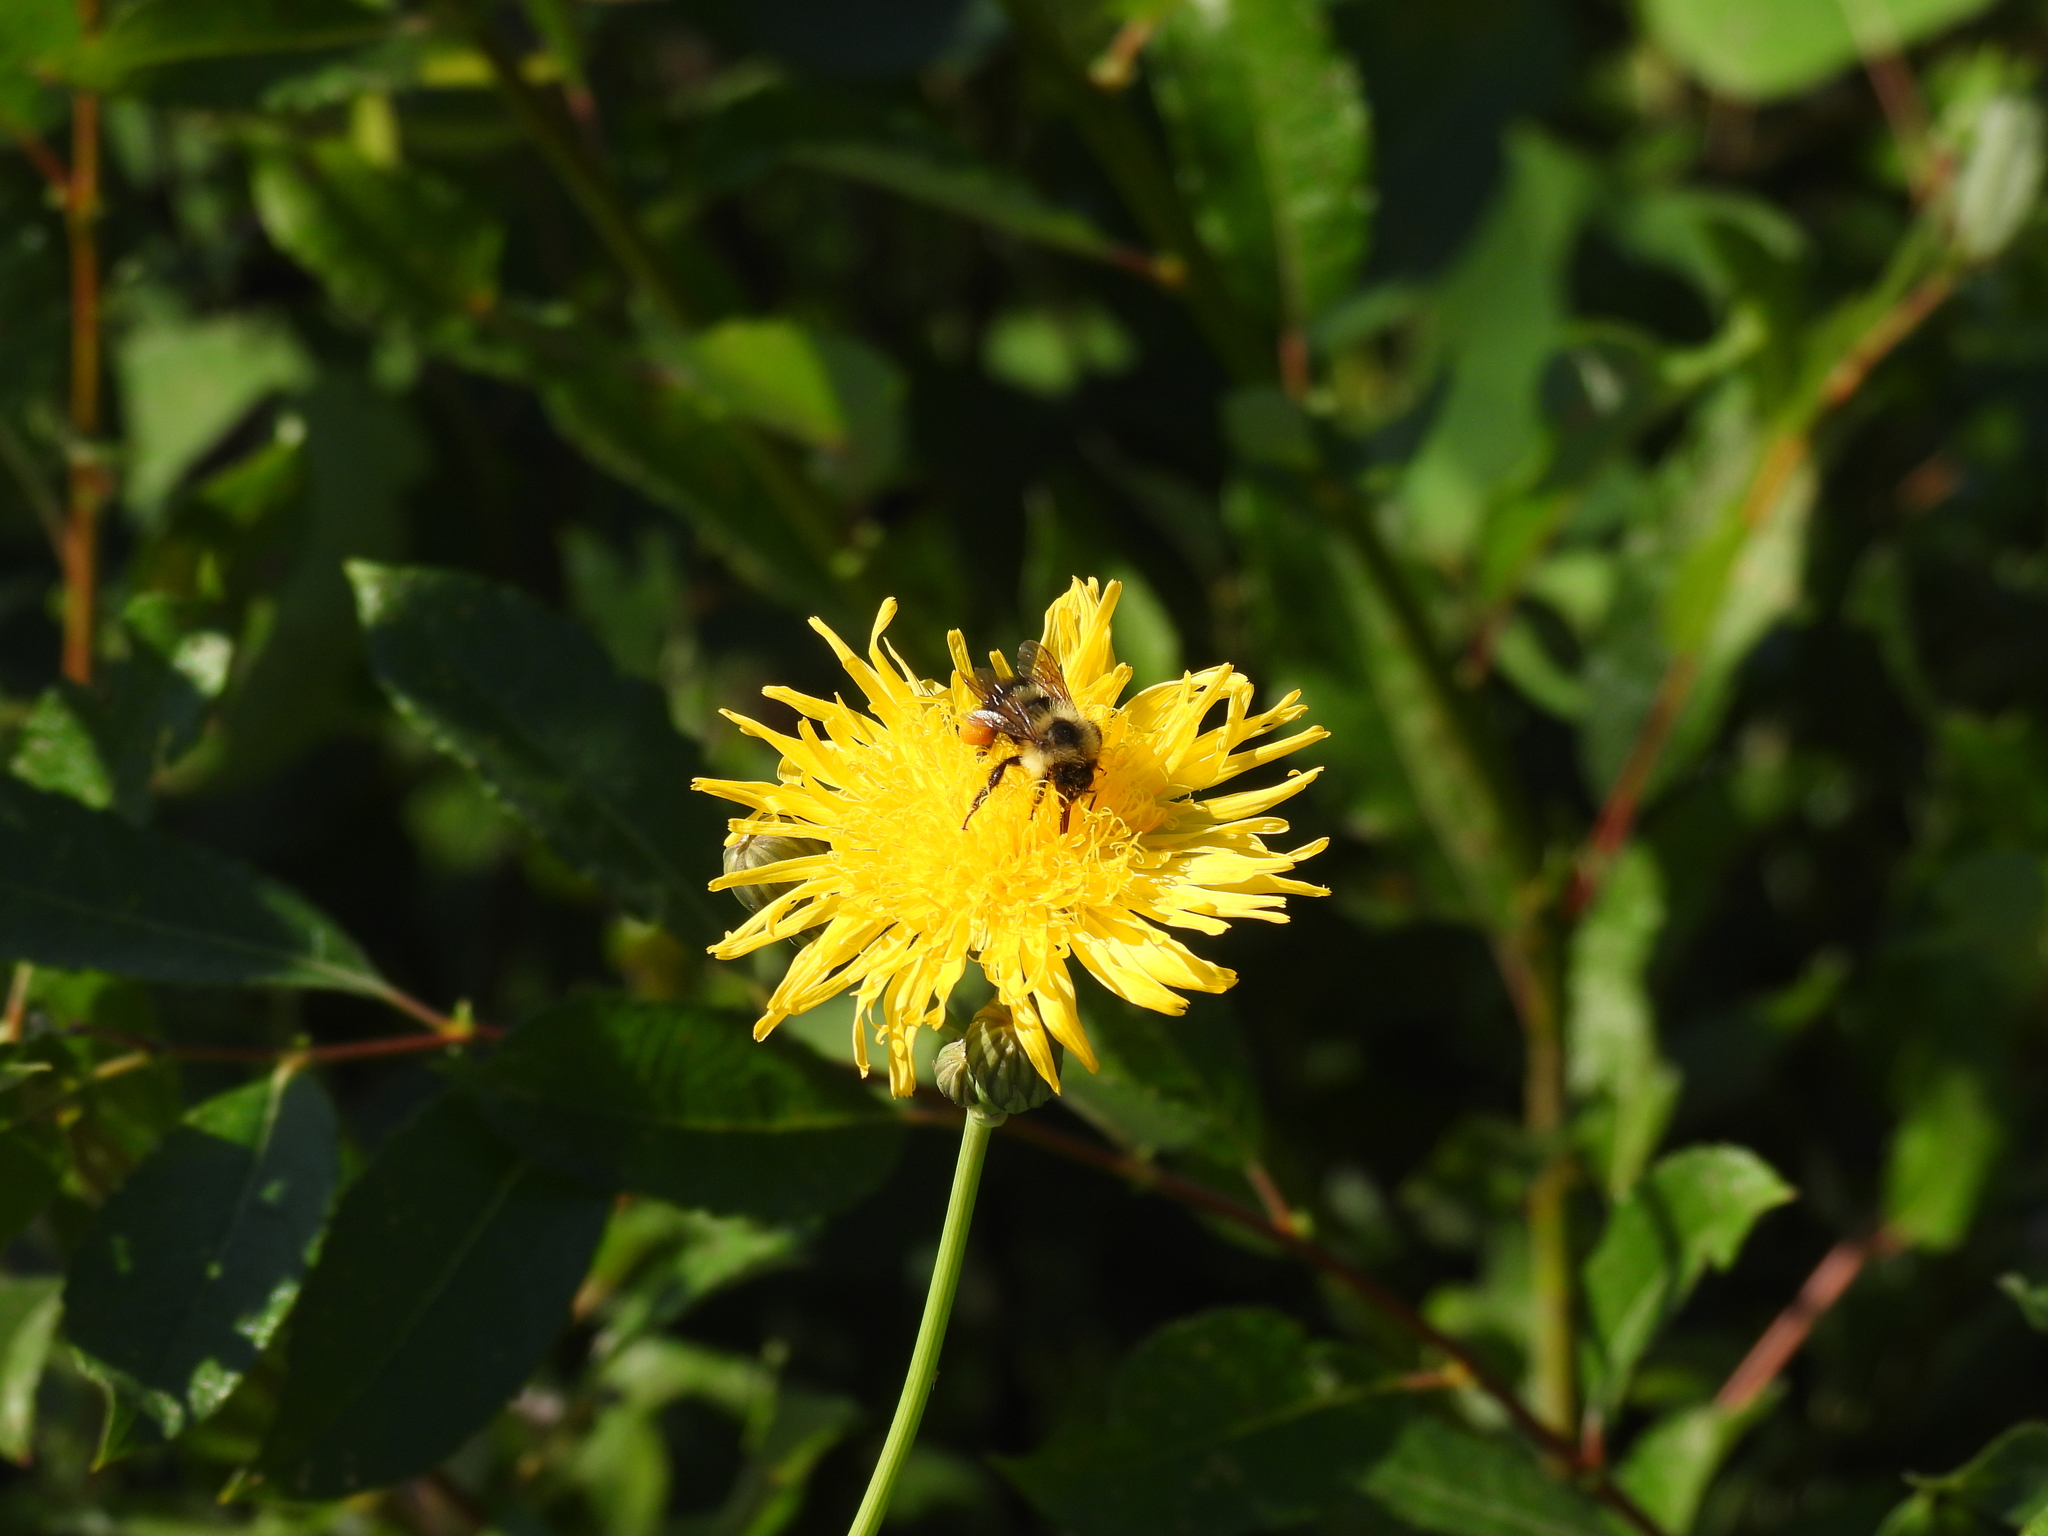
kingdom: Animalia
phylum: Arthropoda
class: Insecta
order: Hymenoptera
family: Apidae
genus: Bombus
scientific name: Bombus
